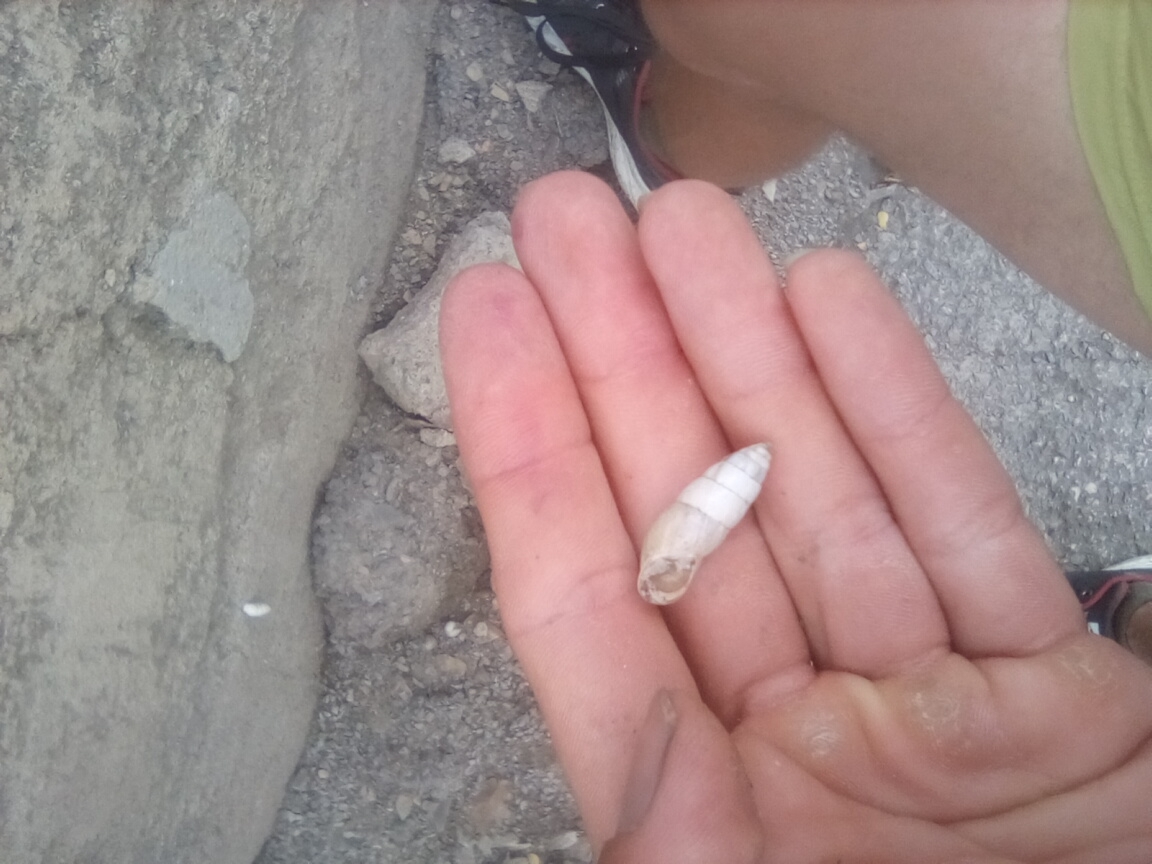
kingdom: Animalia
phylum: Mollusca
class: Gastropoda
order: Stylommatophora
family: Enidae
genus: Brephulopsis
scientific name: Brephulopsis cylindrica
